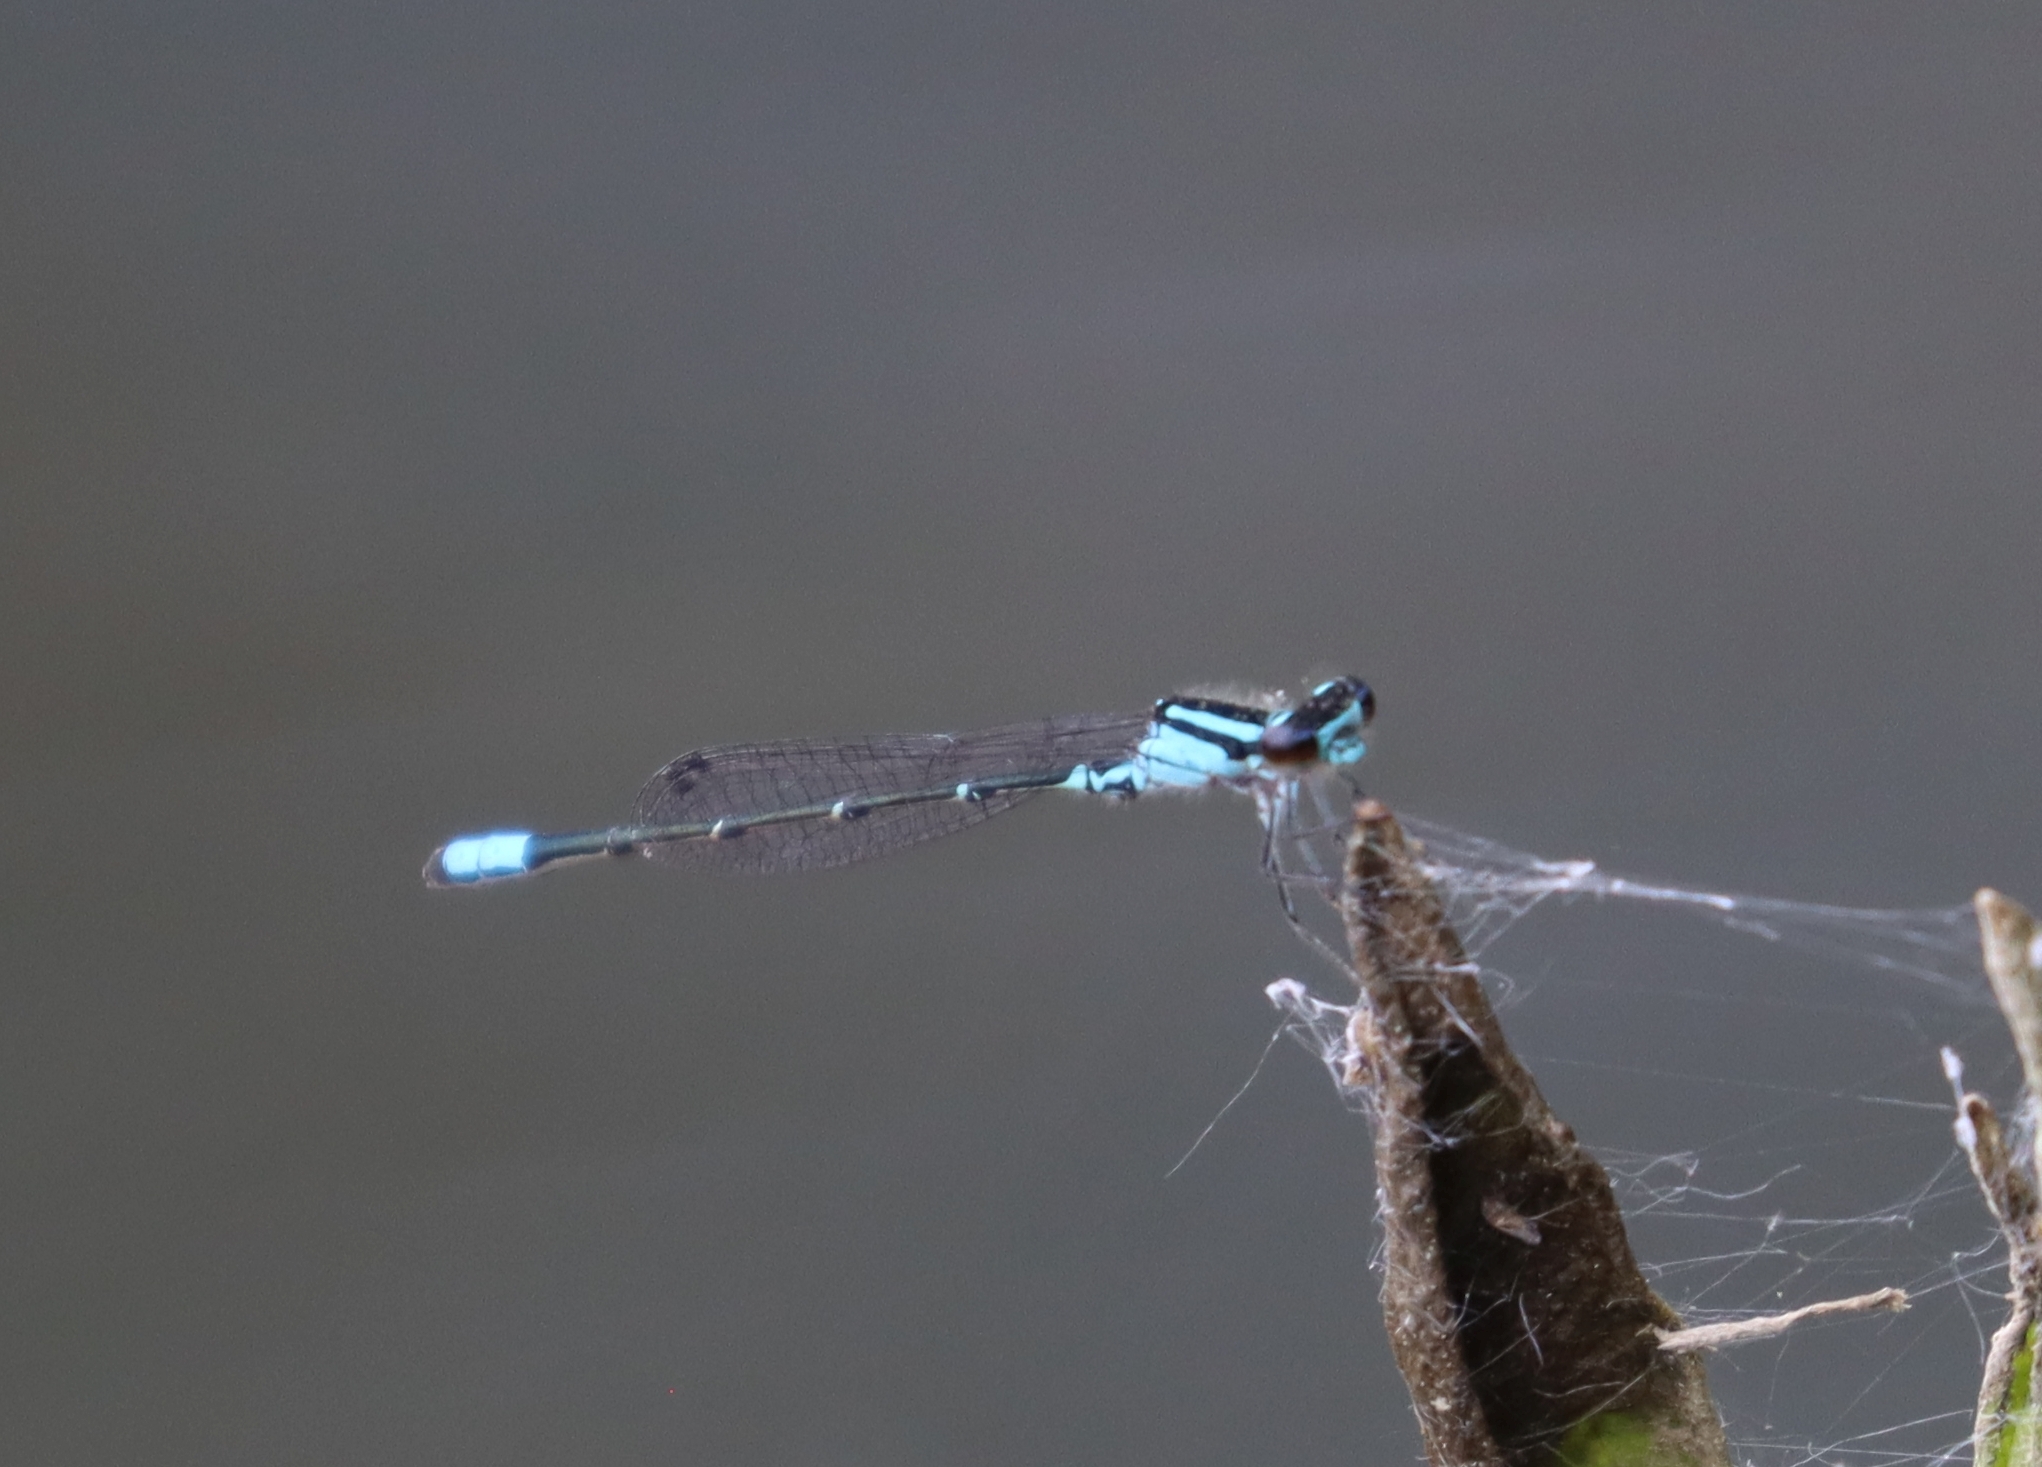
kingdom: Animalia
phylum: Arthropoda
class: Insecta
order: Odonata
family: Coenagrionidae
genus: Enallagma
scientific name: Enallagma geminatum
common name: Skimming bluet
